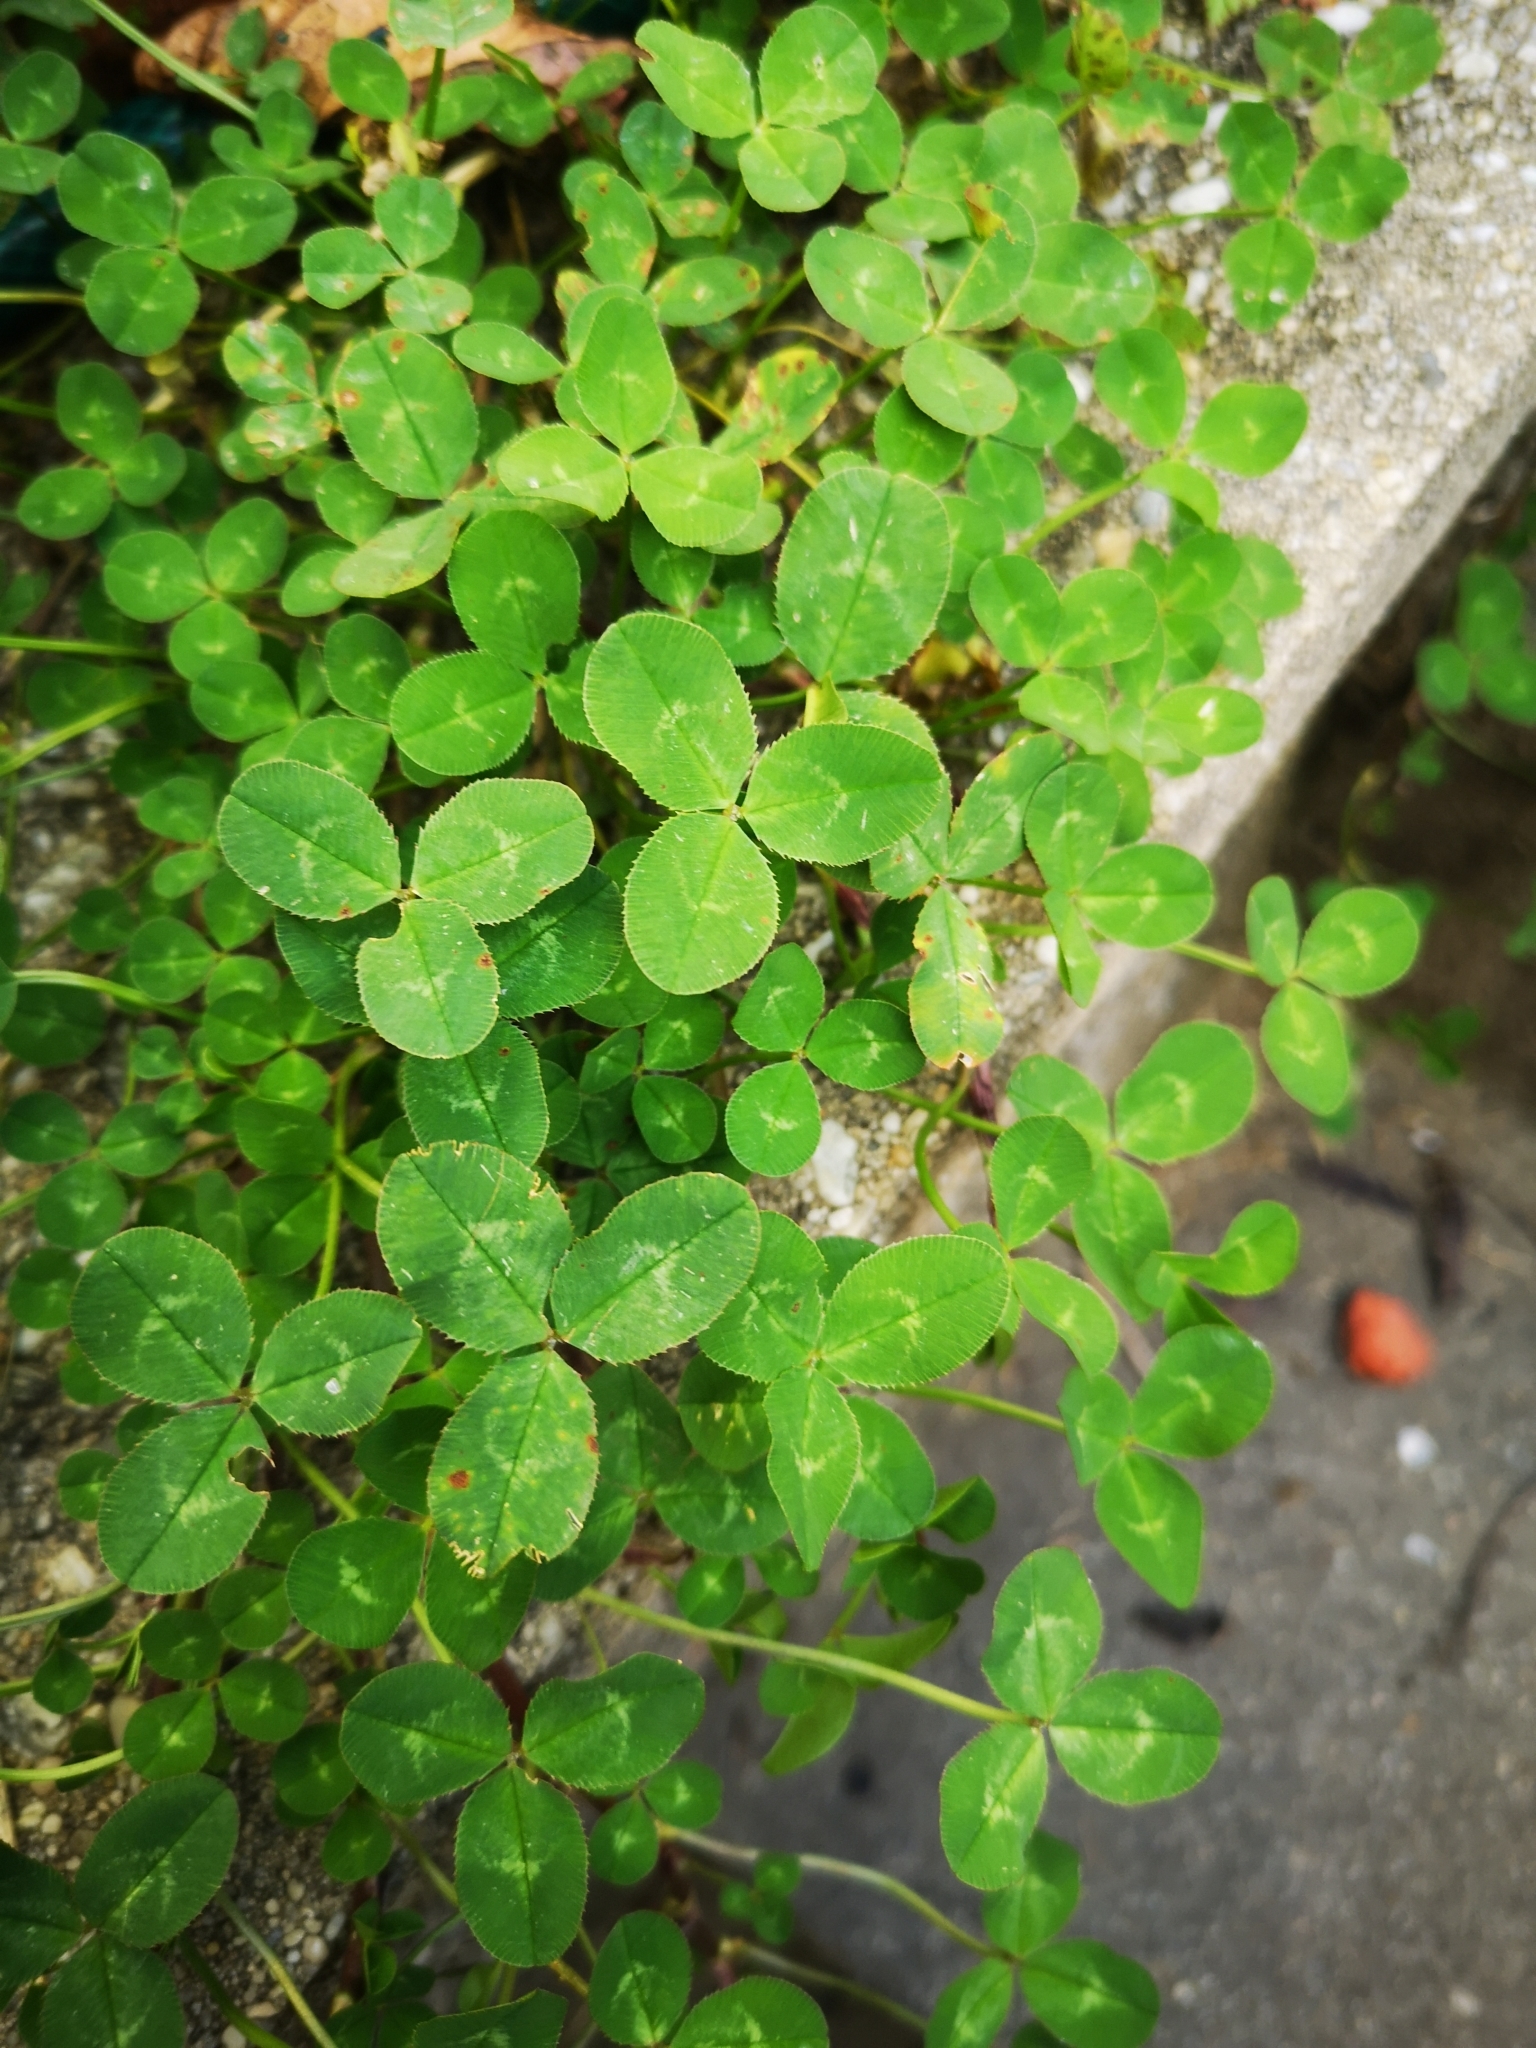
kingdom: Plantae
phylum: Tracheophyta
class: Magnoliopsida
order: Fabales
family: Fabaceae
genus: Trifolium
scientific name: Trifolium repens
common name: White clover
